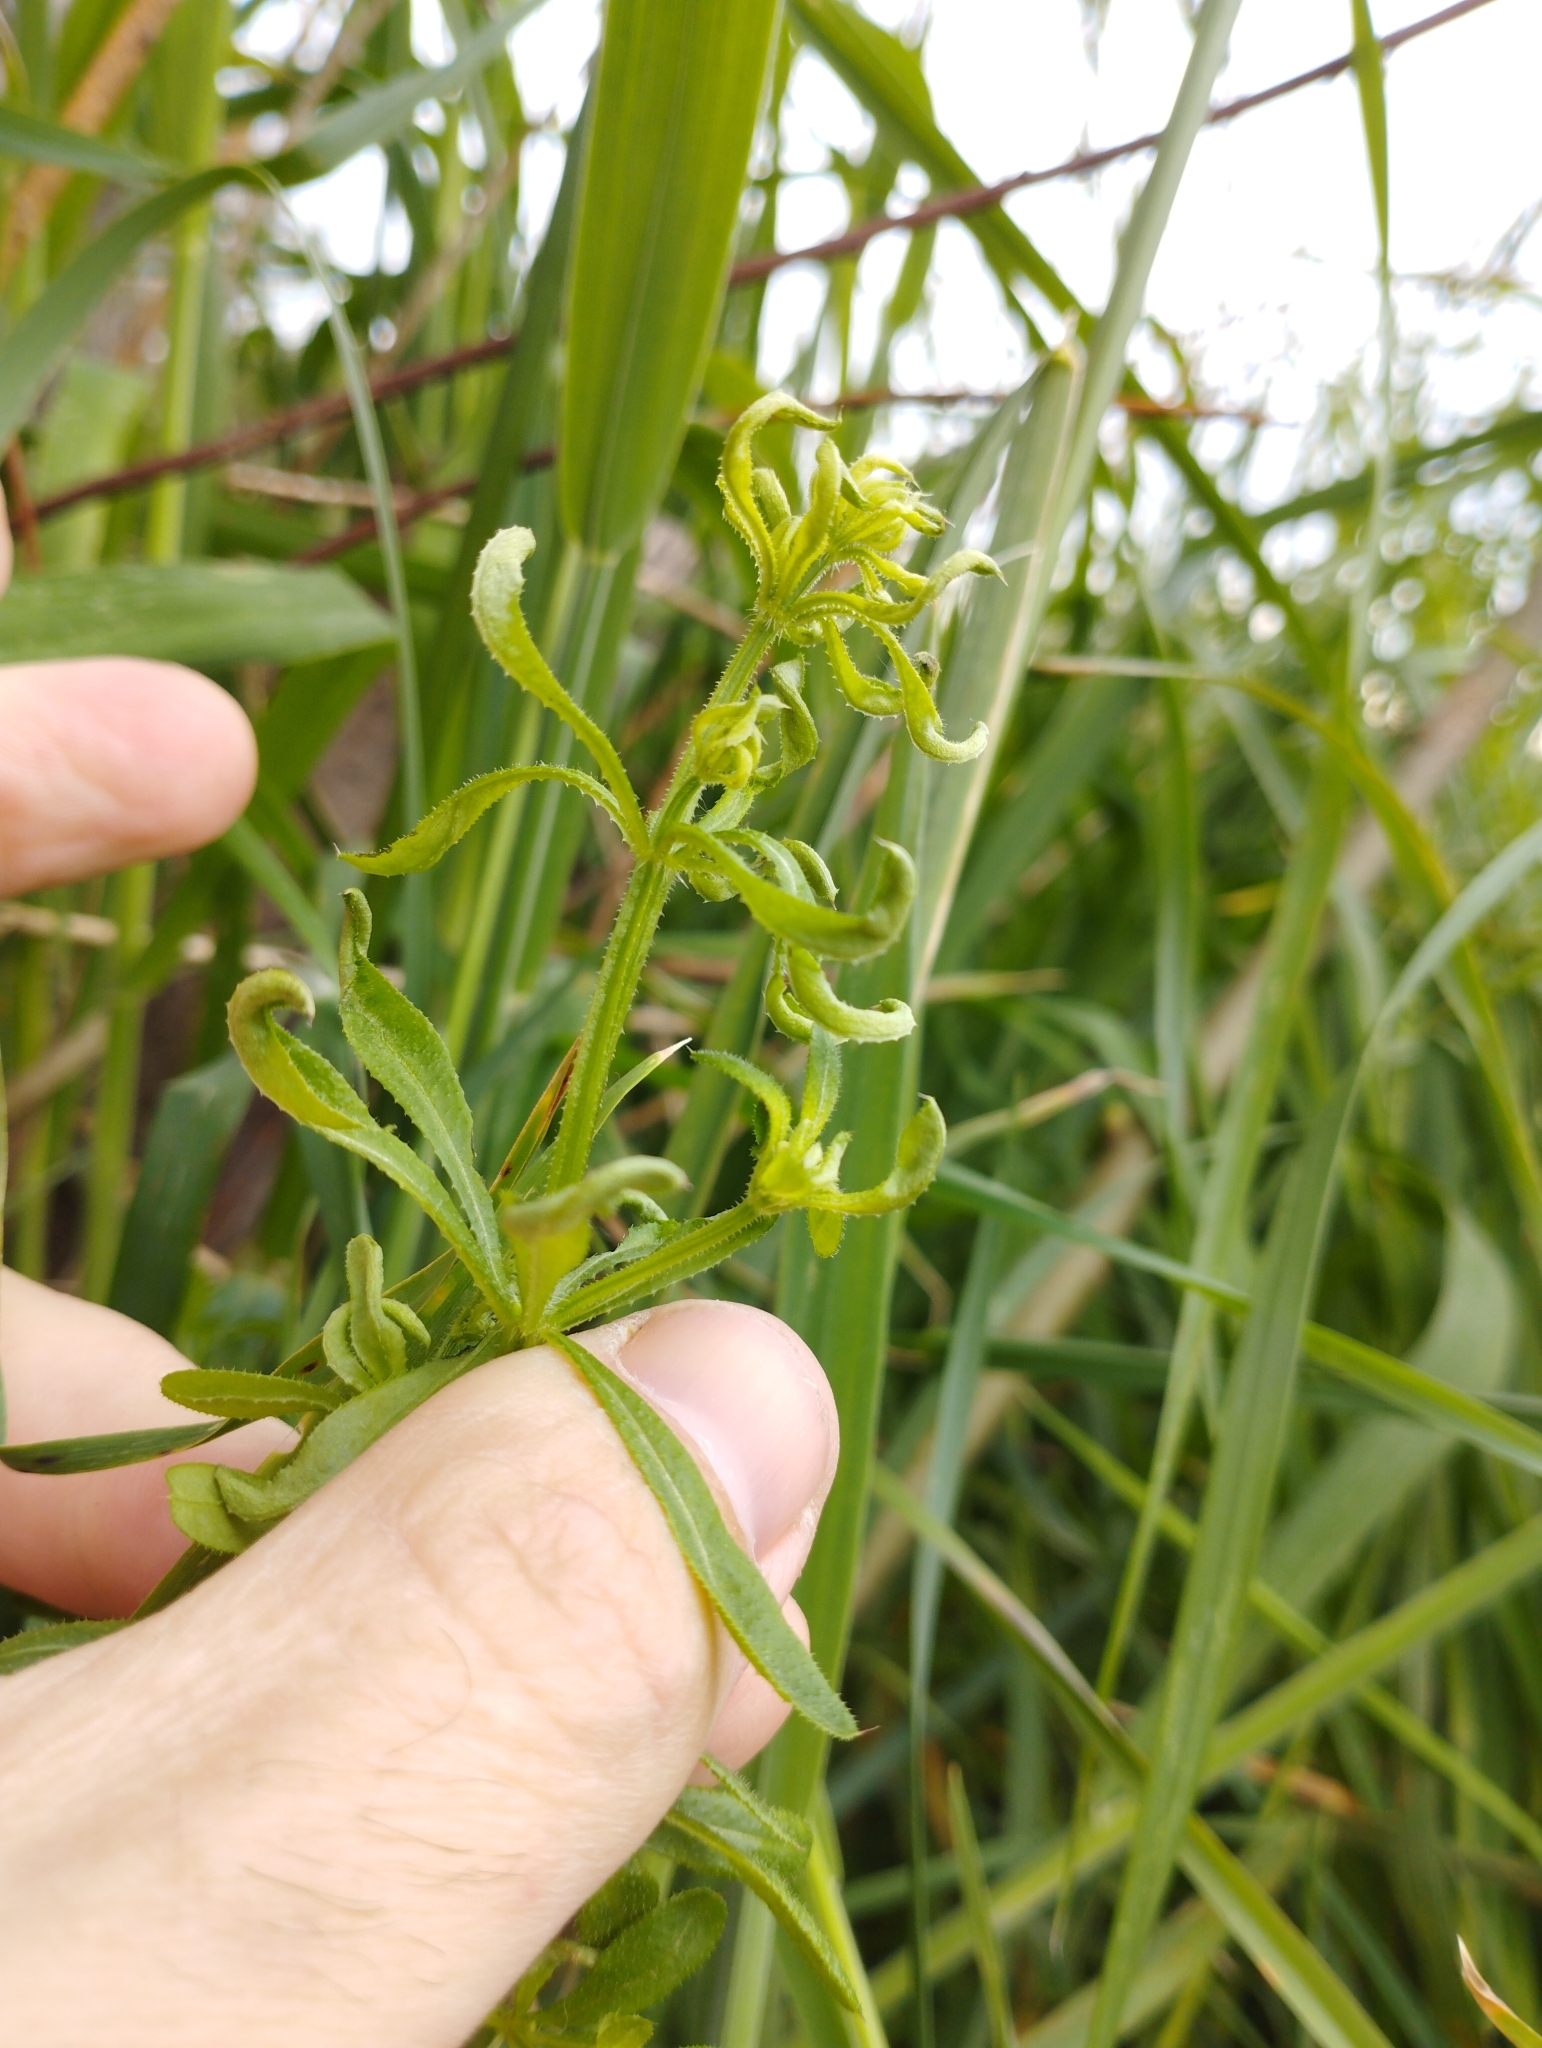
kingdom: Animalia
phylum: Arthropoda
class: Arachnida
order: Trombidiformes
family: Eriophyidae
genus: Cecidophyes
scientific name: Cecidophyes rouhollahi
